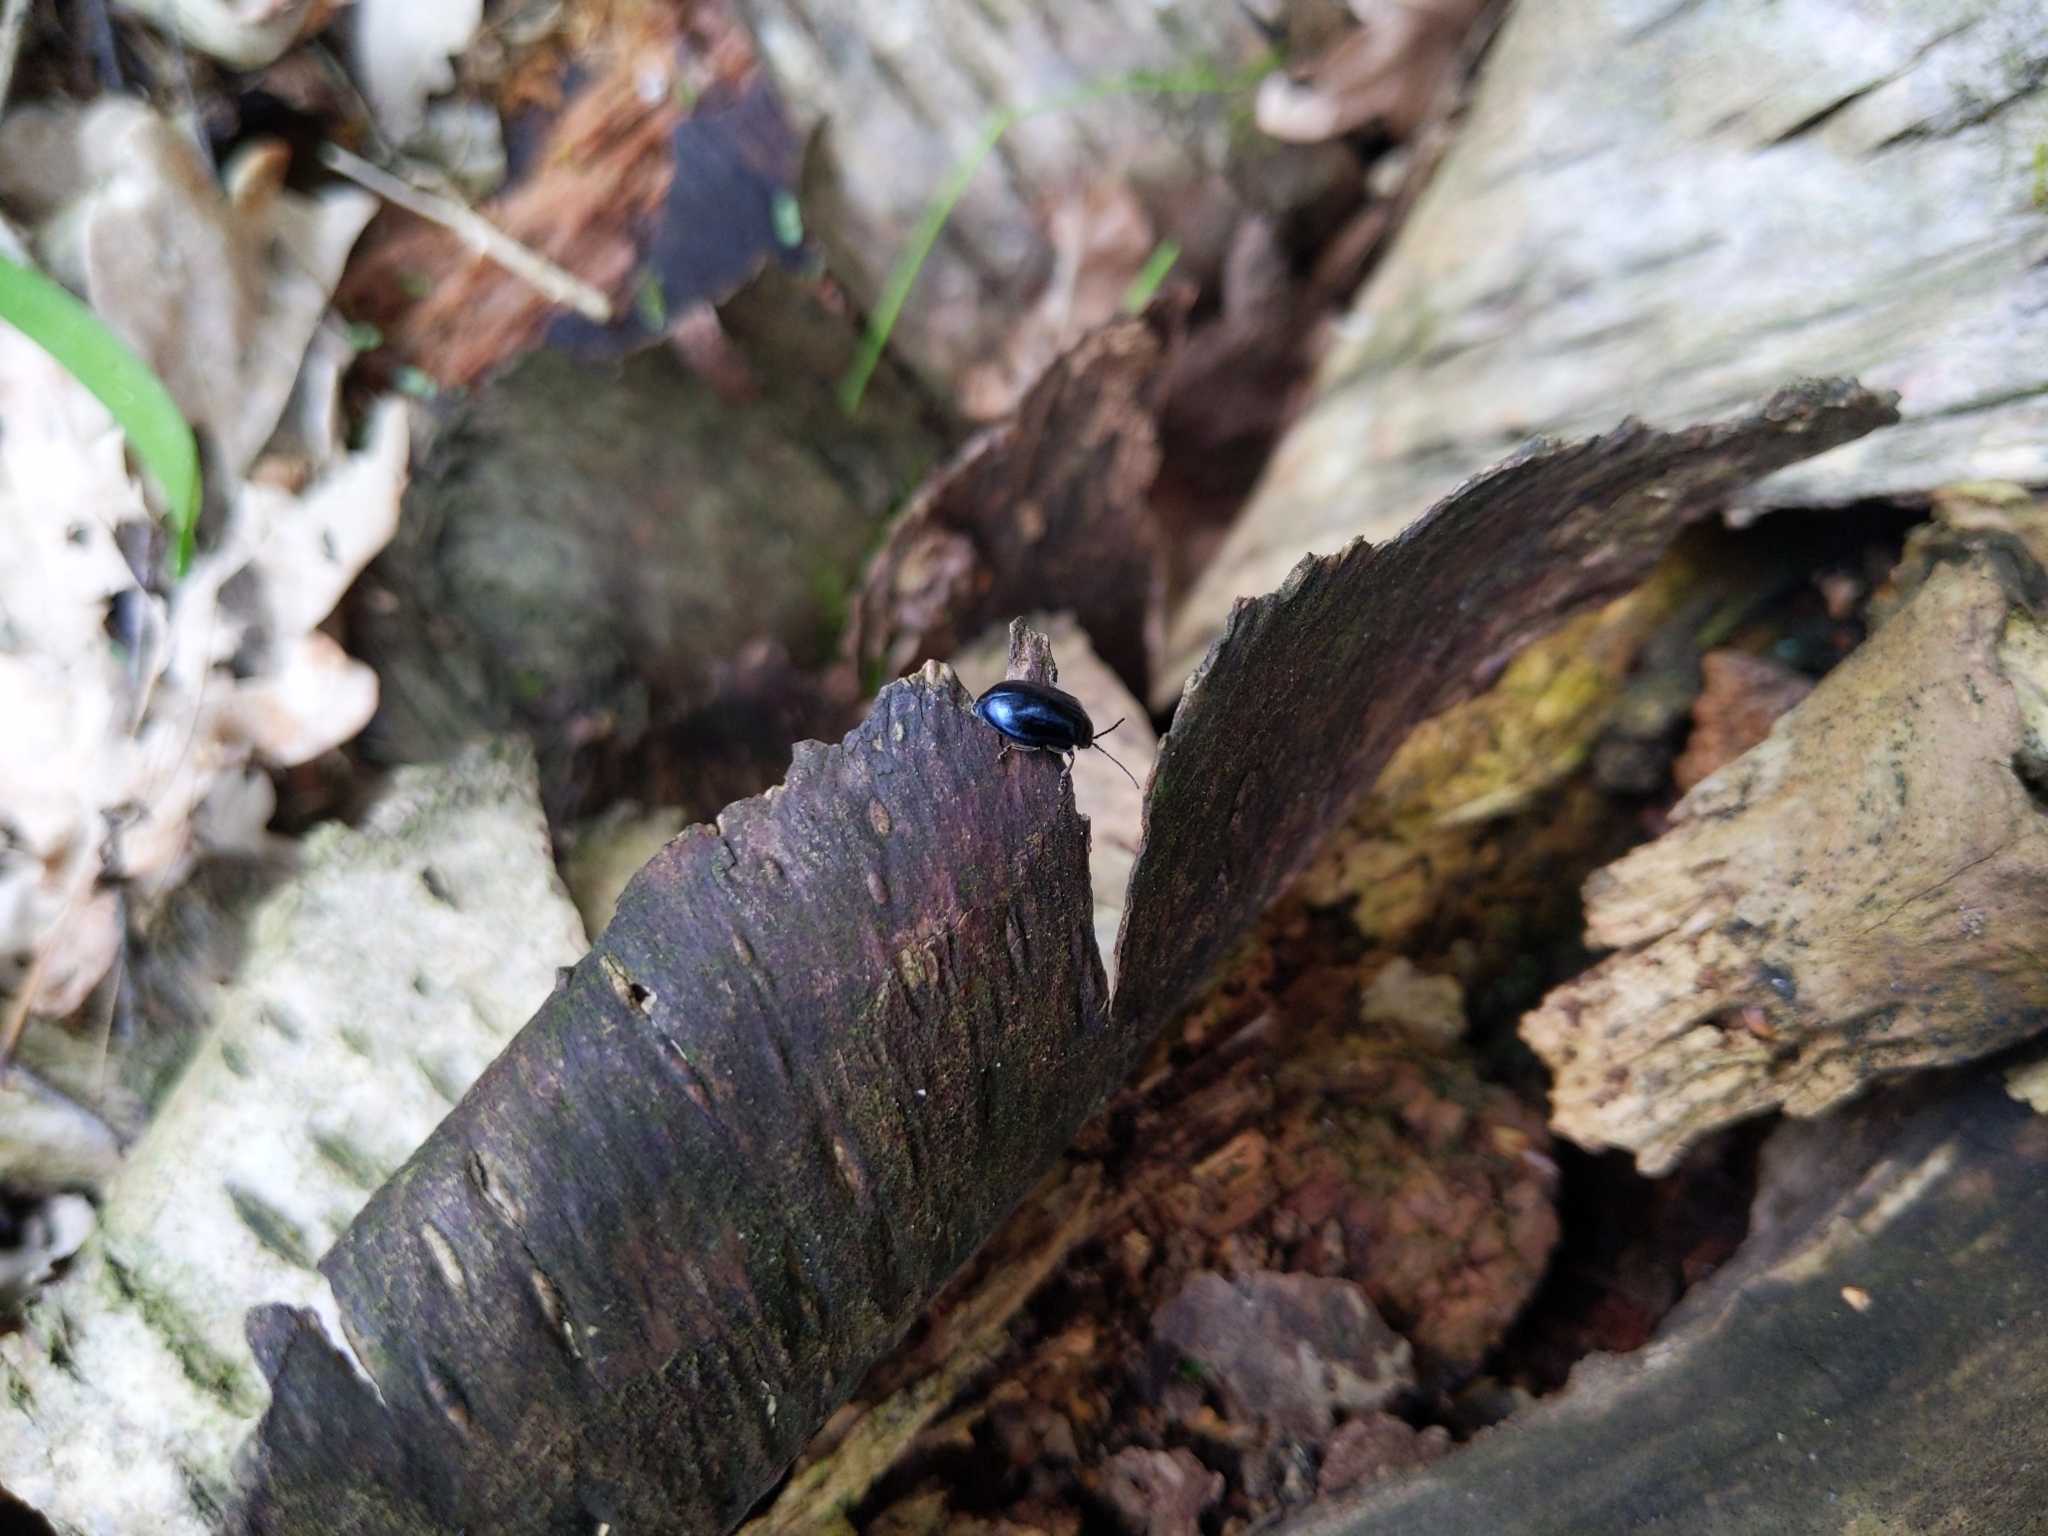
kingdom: Animalia
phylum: Arthropoda
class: Insecta
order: Coleoptera
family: Chrysomelidae
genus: Agelastica
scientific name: Agelastica alni
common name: Alder leaf beetle
